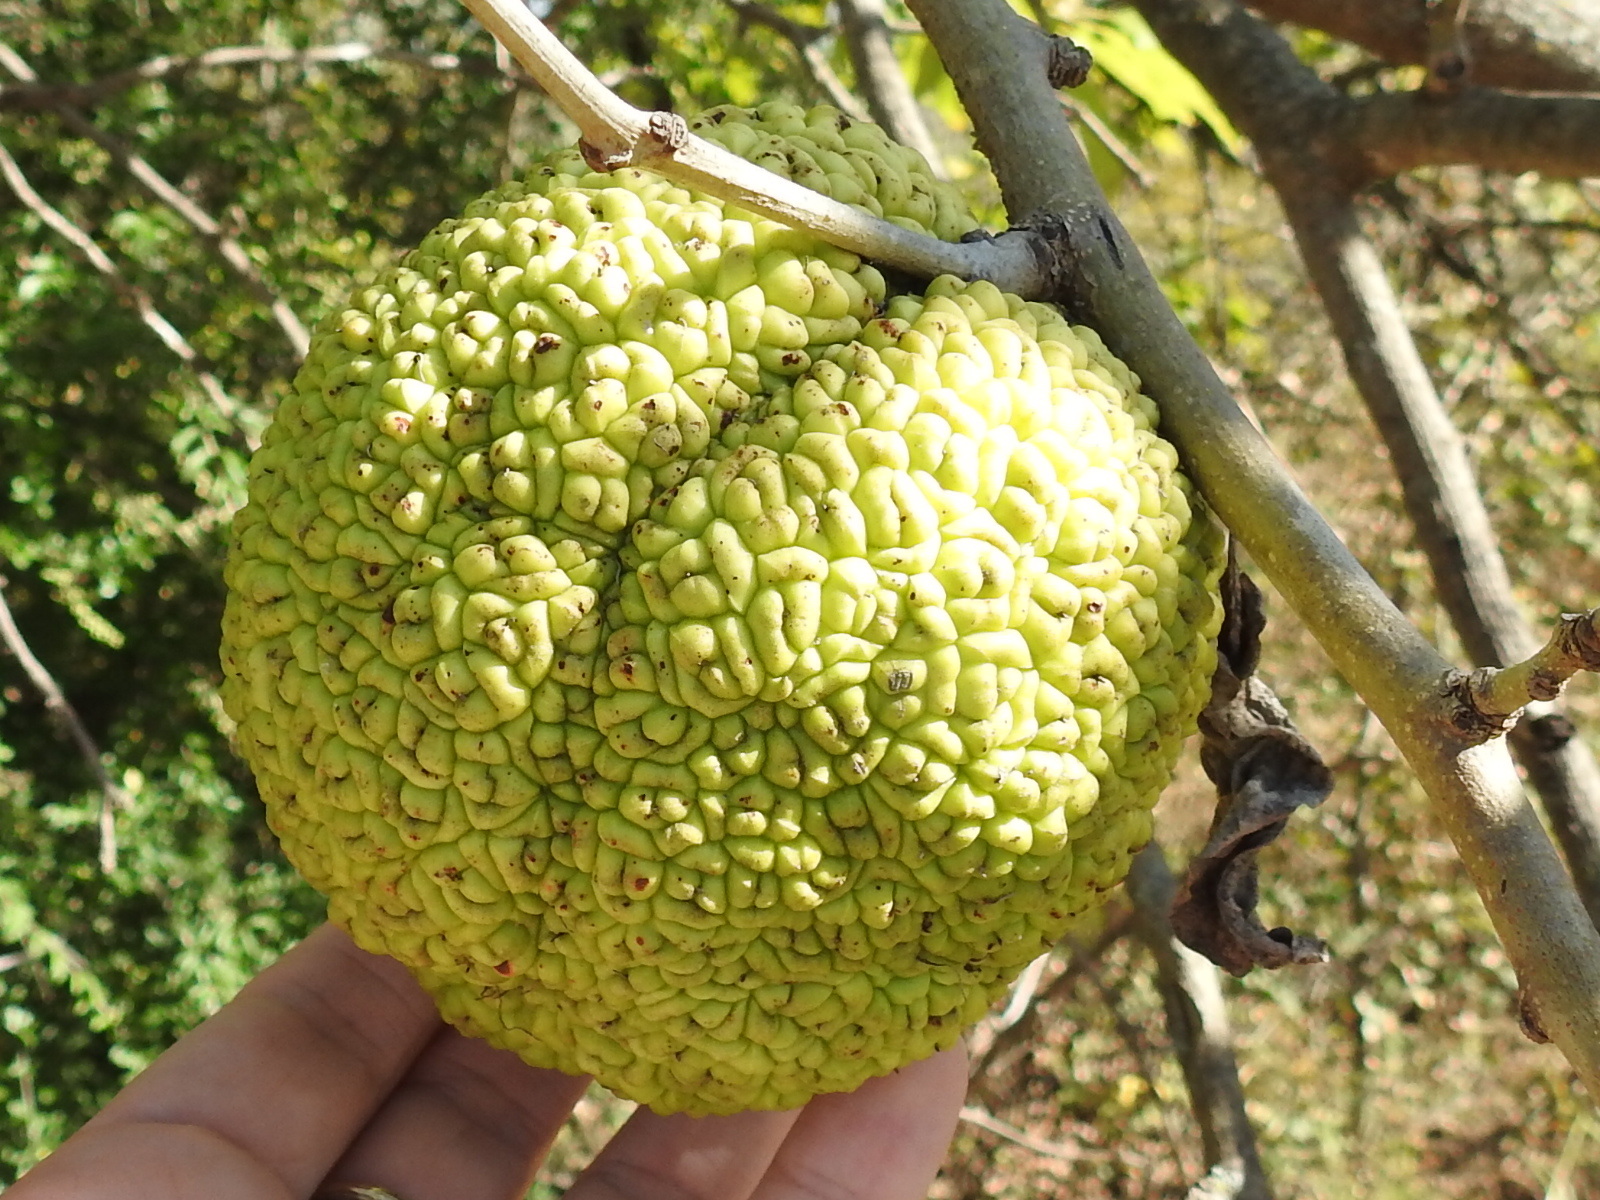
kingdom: Plantae
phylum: Tracheophyta
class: Magnoliopsida
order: Rosales
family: Moraceae
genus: Maclura
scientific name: Maclura pomifera
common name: Osage-orange
